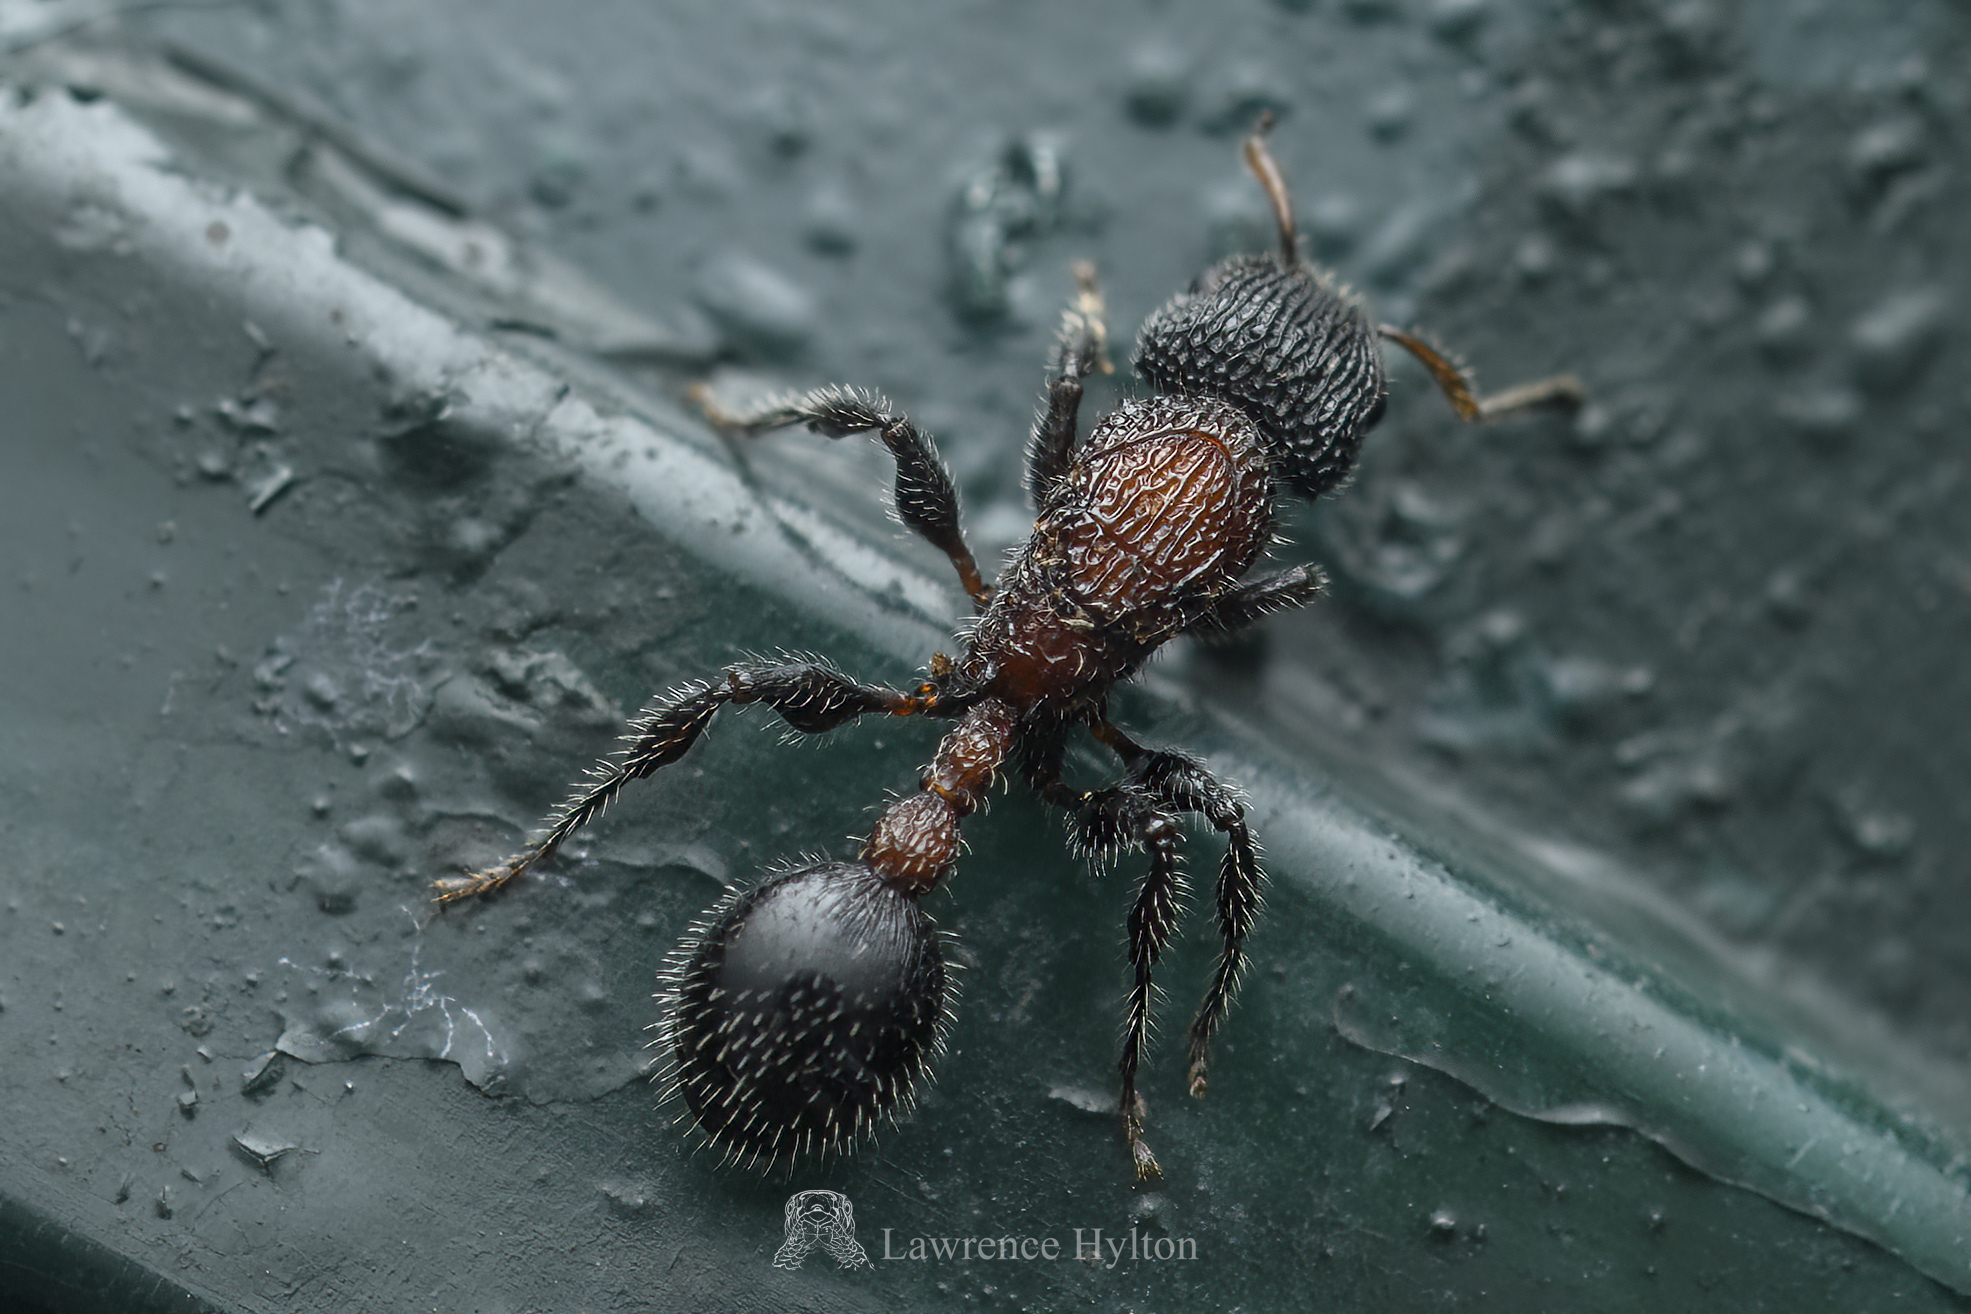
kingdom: Animalia
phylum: Arthropoda
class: Insecta
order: Hymenoptera
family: Formicidae
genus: Dilobocondyla
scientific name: Dilobocondyla fouqueti
